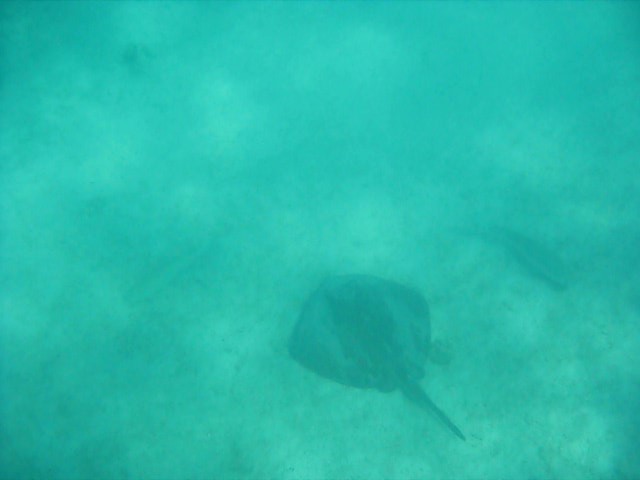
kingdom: Animalia
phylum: Chordata
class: Elasmobranchii
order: Myliobatiformes
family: Dasyatidae
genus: Hypanus
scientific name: Hypanus dipterurus
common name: Diamond stingray
